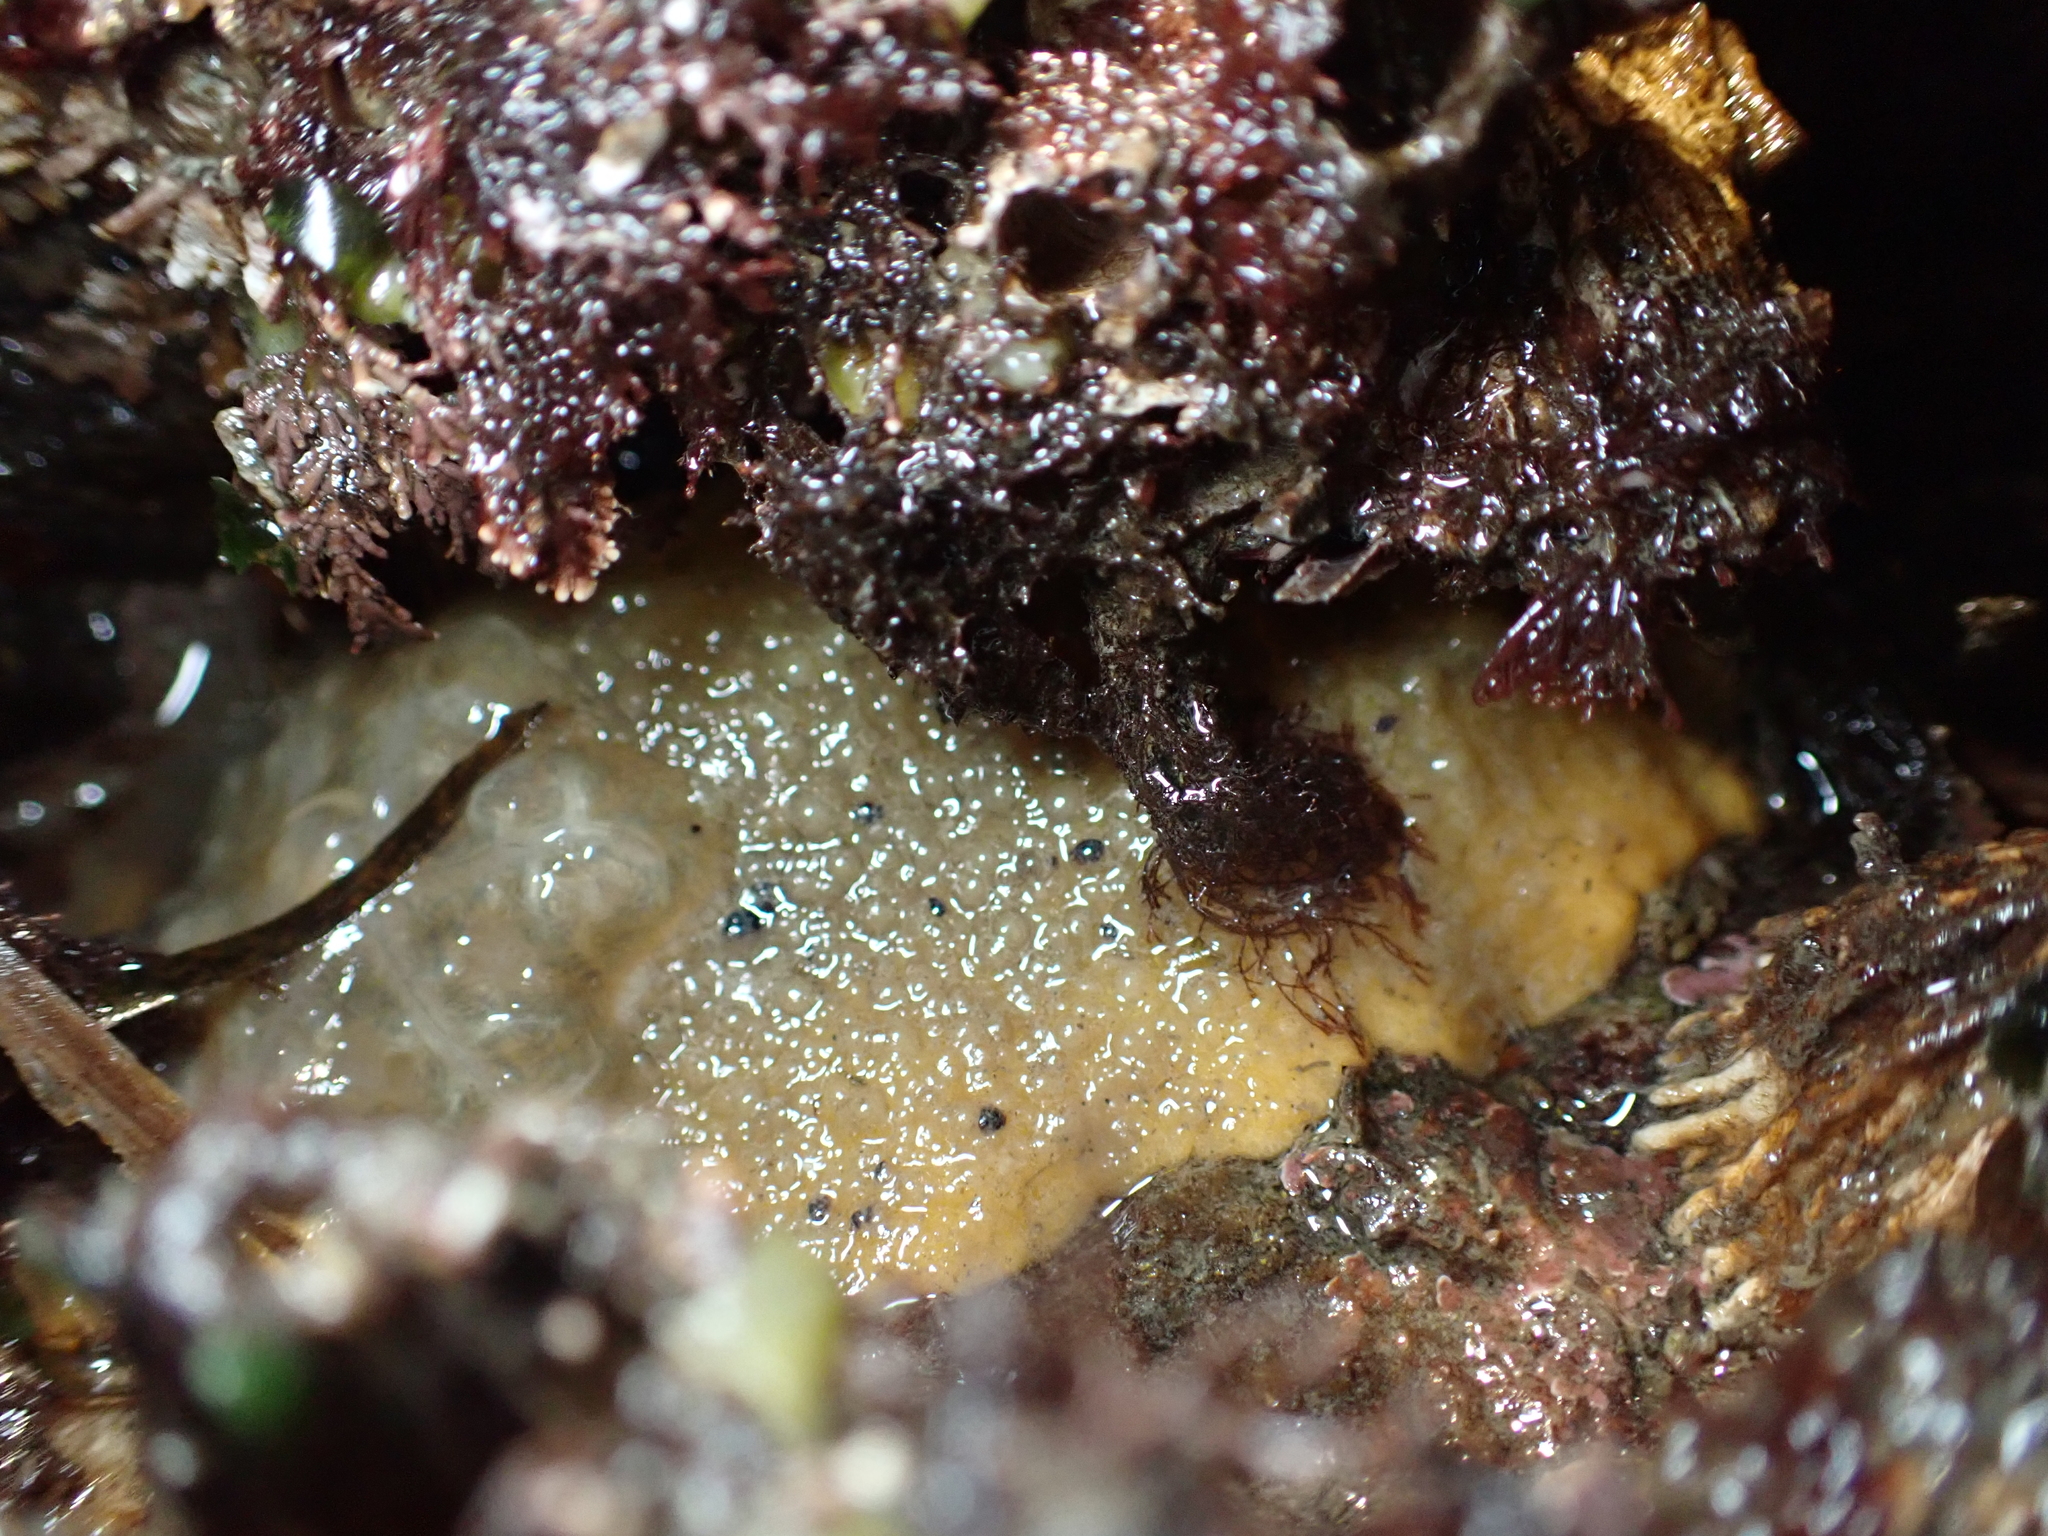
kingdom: Animalia
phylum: Mollusca
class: Gastropoda
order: Nudibranchia
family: Dorididae
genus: Doris
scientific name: Doris montereyensis
